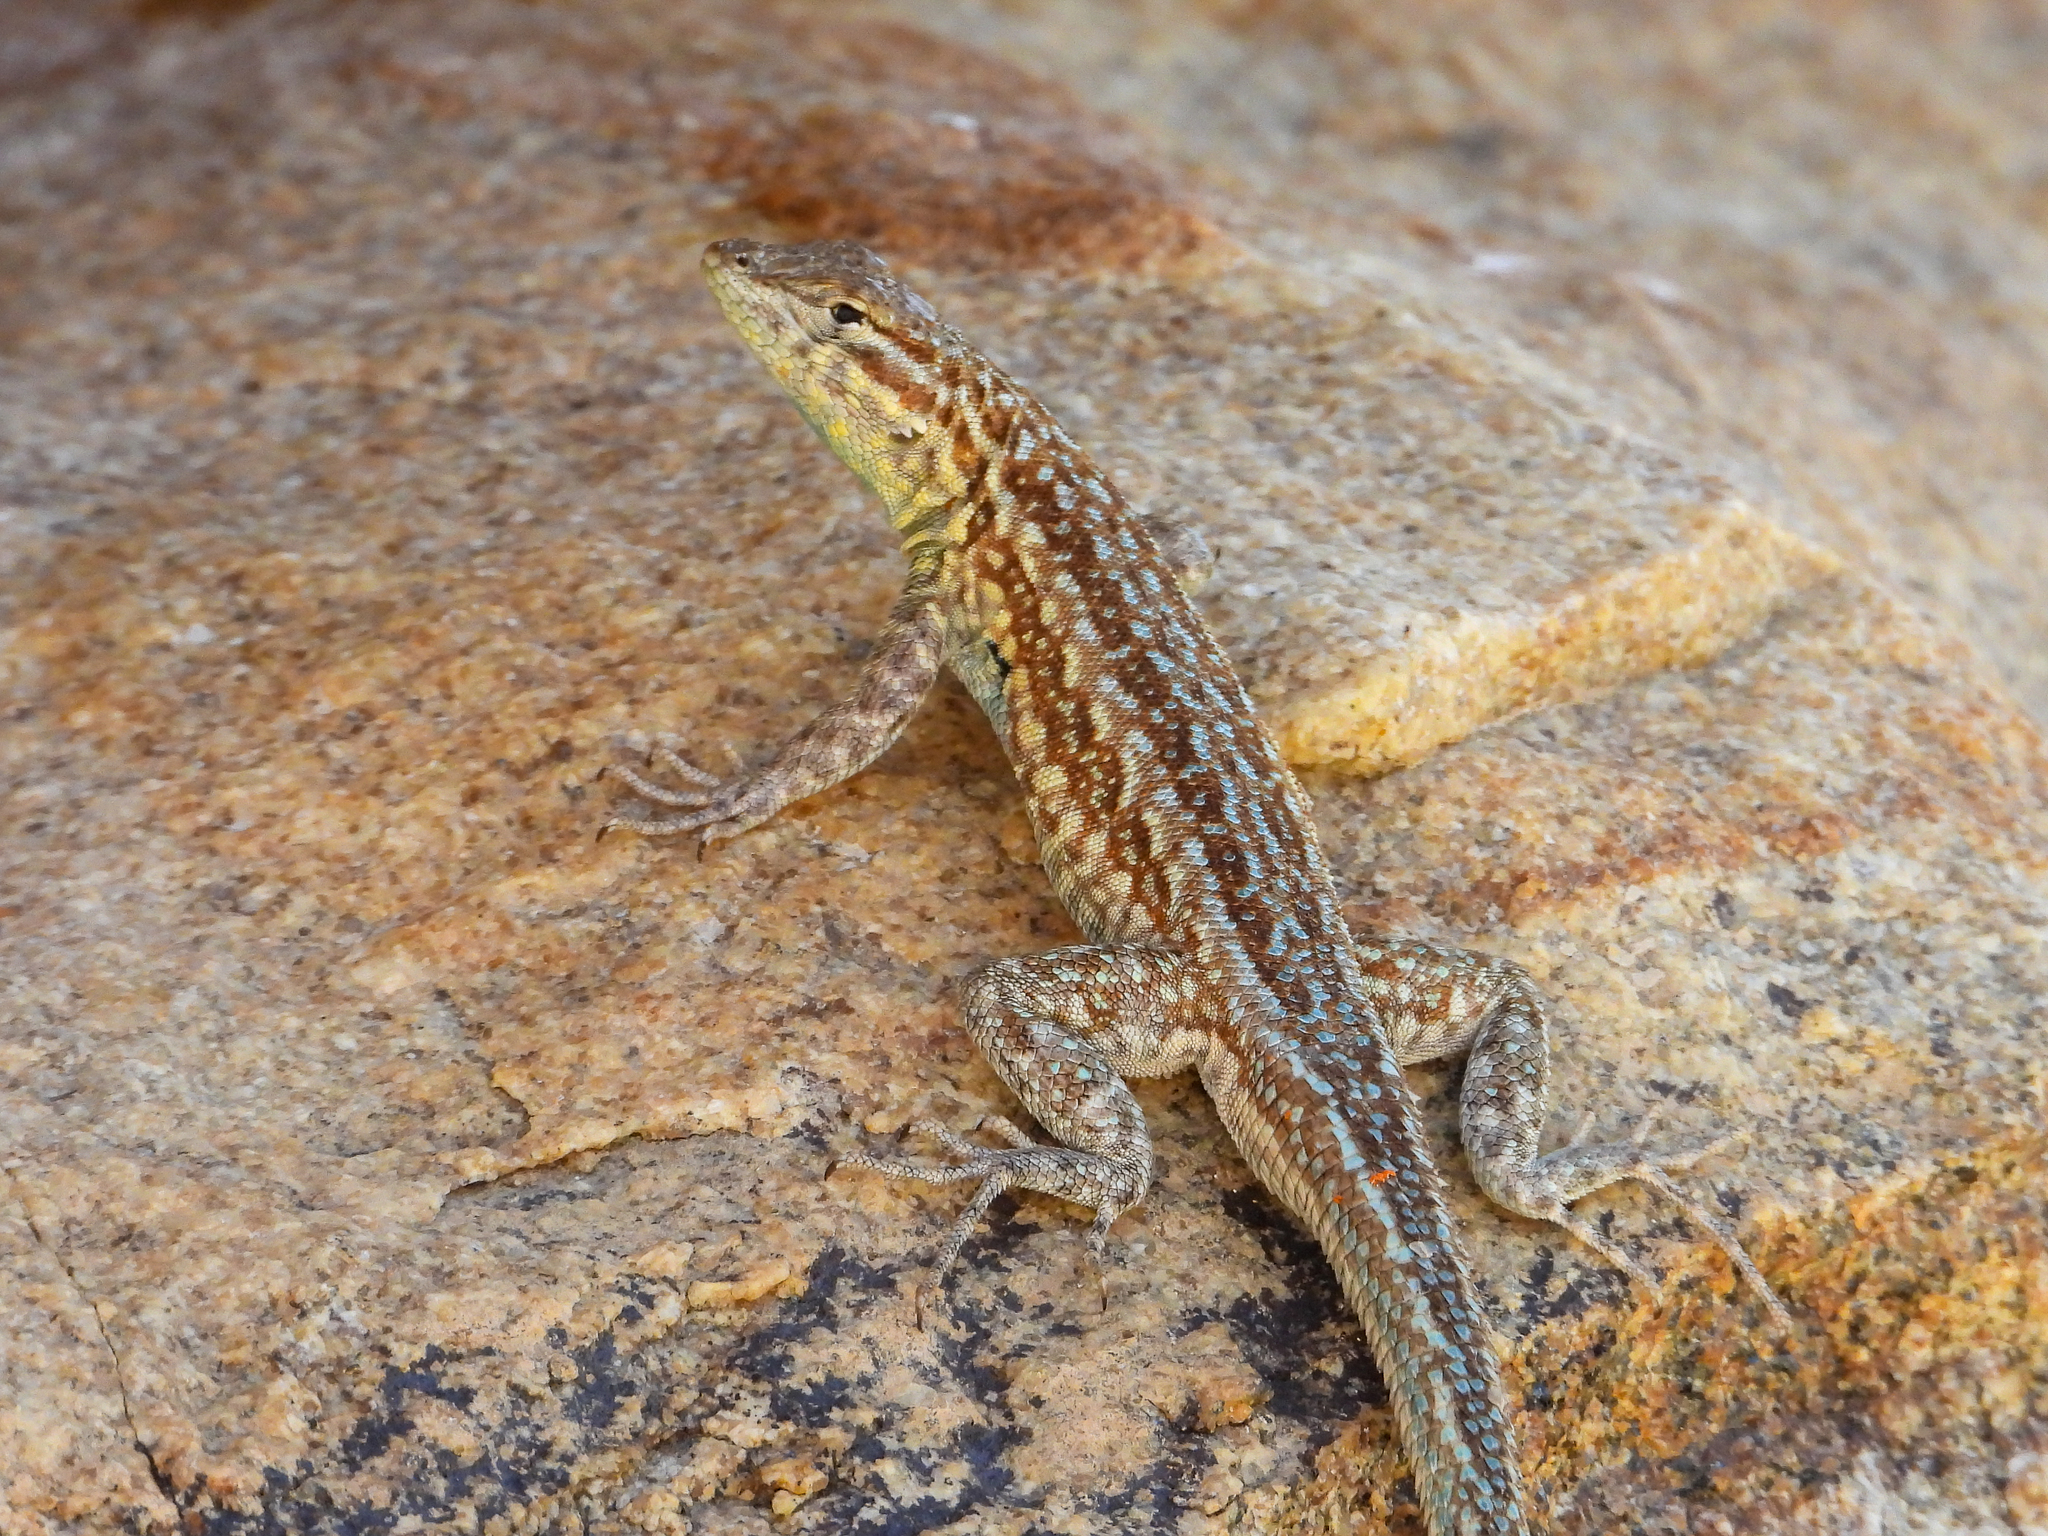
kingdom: Animalia
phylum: Chordata
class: Squamata
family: Phrynosomatidae
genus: Uta
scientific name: Uta stansburiana
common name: Side-blotched lizard
